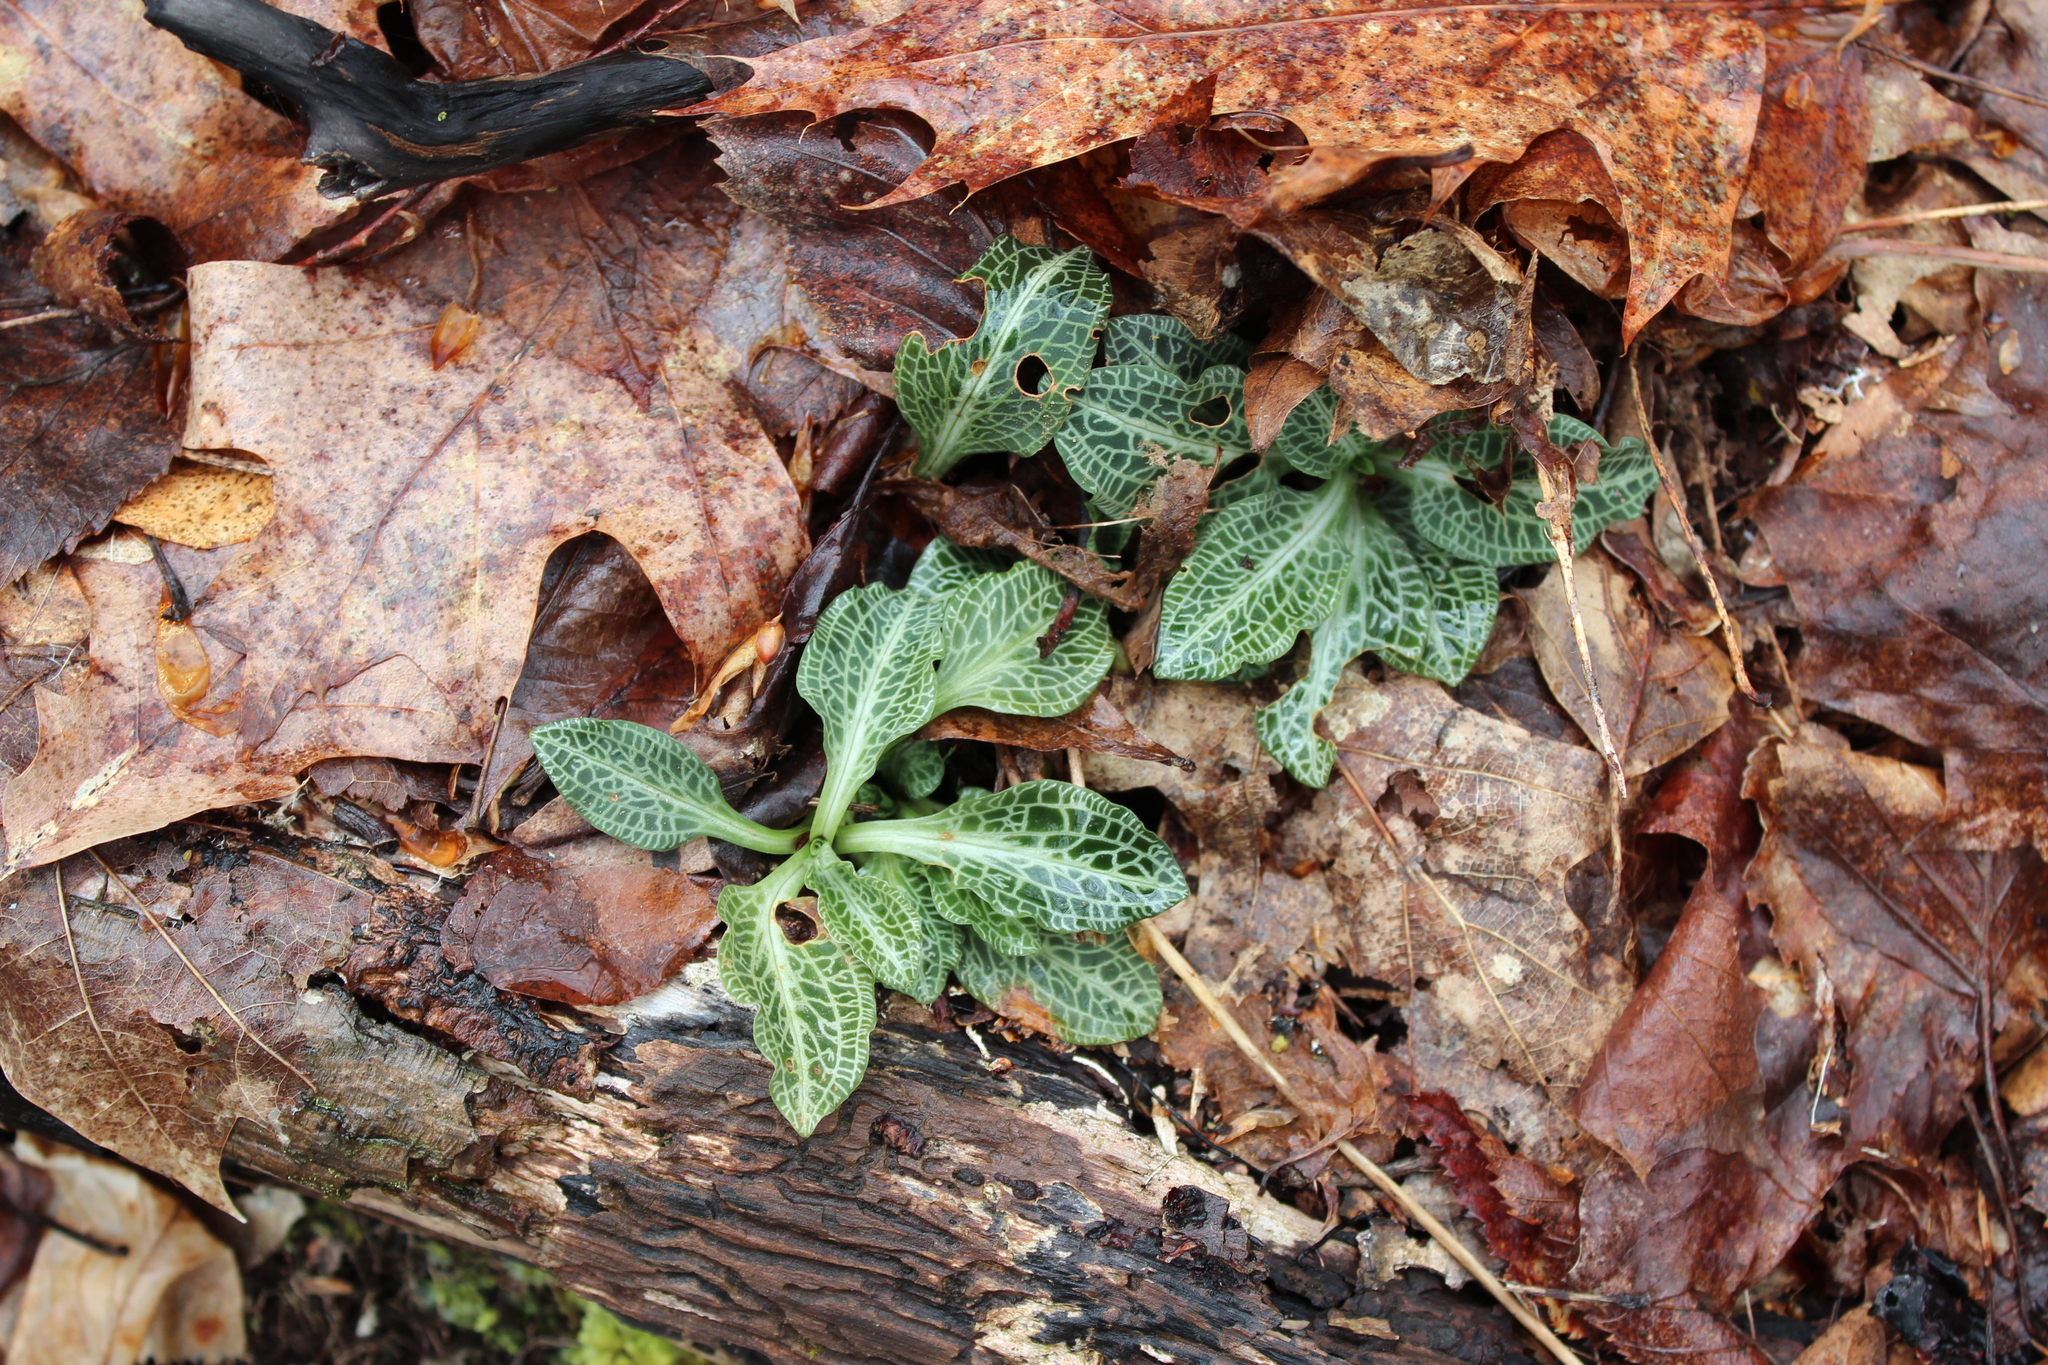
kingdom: Plantae
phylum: Tracheophyta
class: Liliopsida
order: Asparagales
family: Orchidaceae
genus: Goodyera
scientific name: Goodyera pubescens
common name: Downy rattlesnake-plantain
